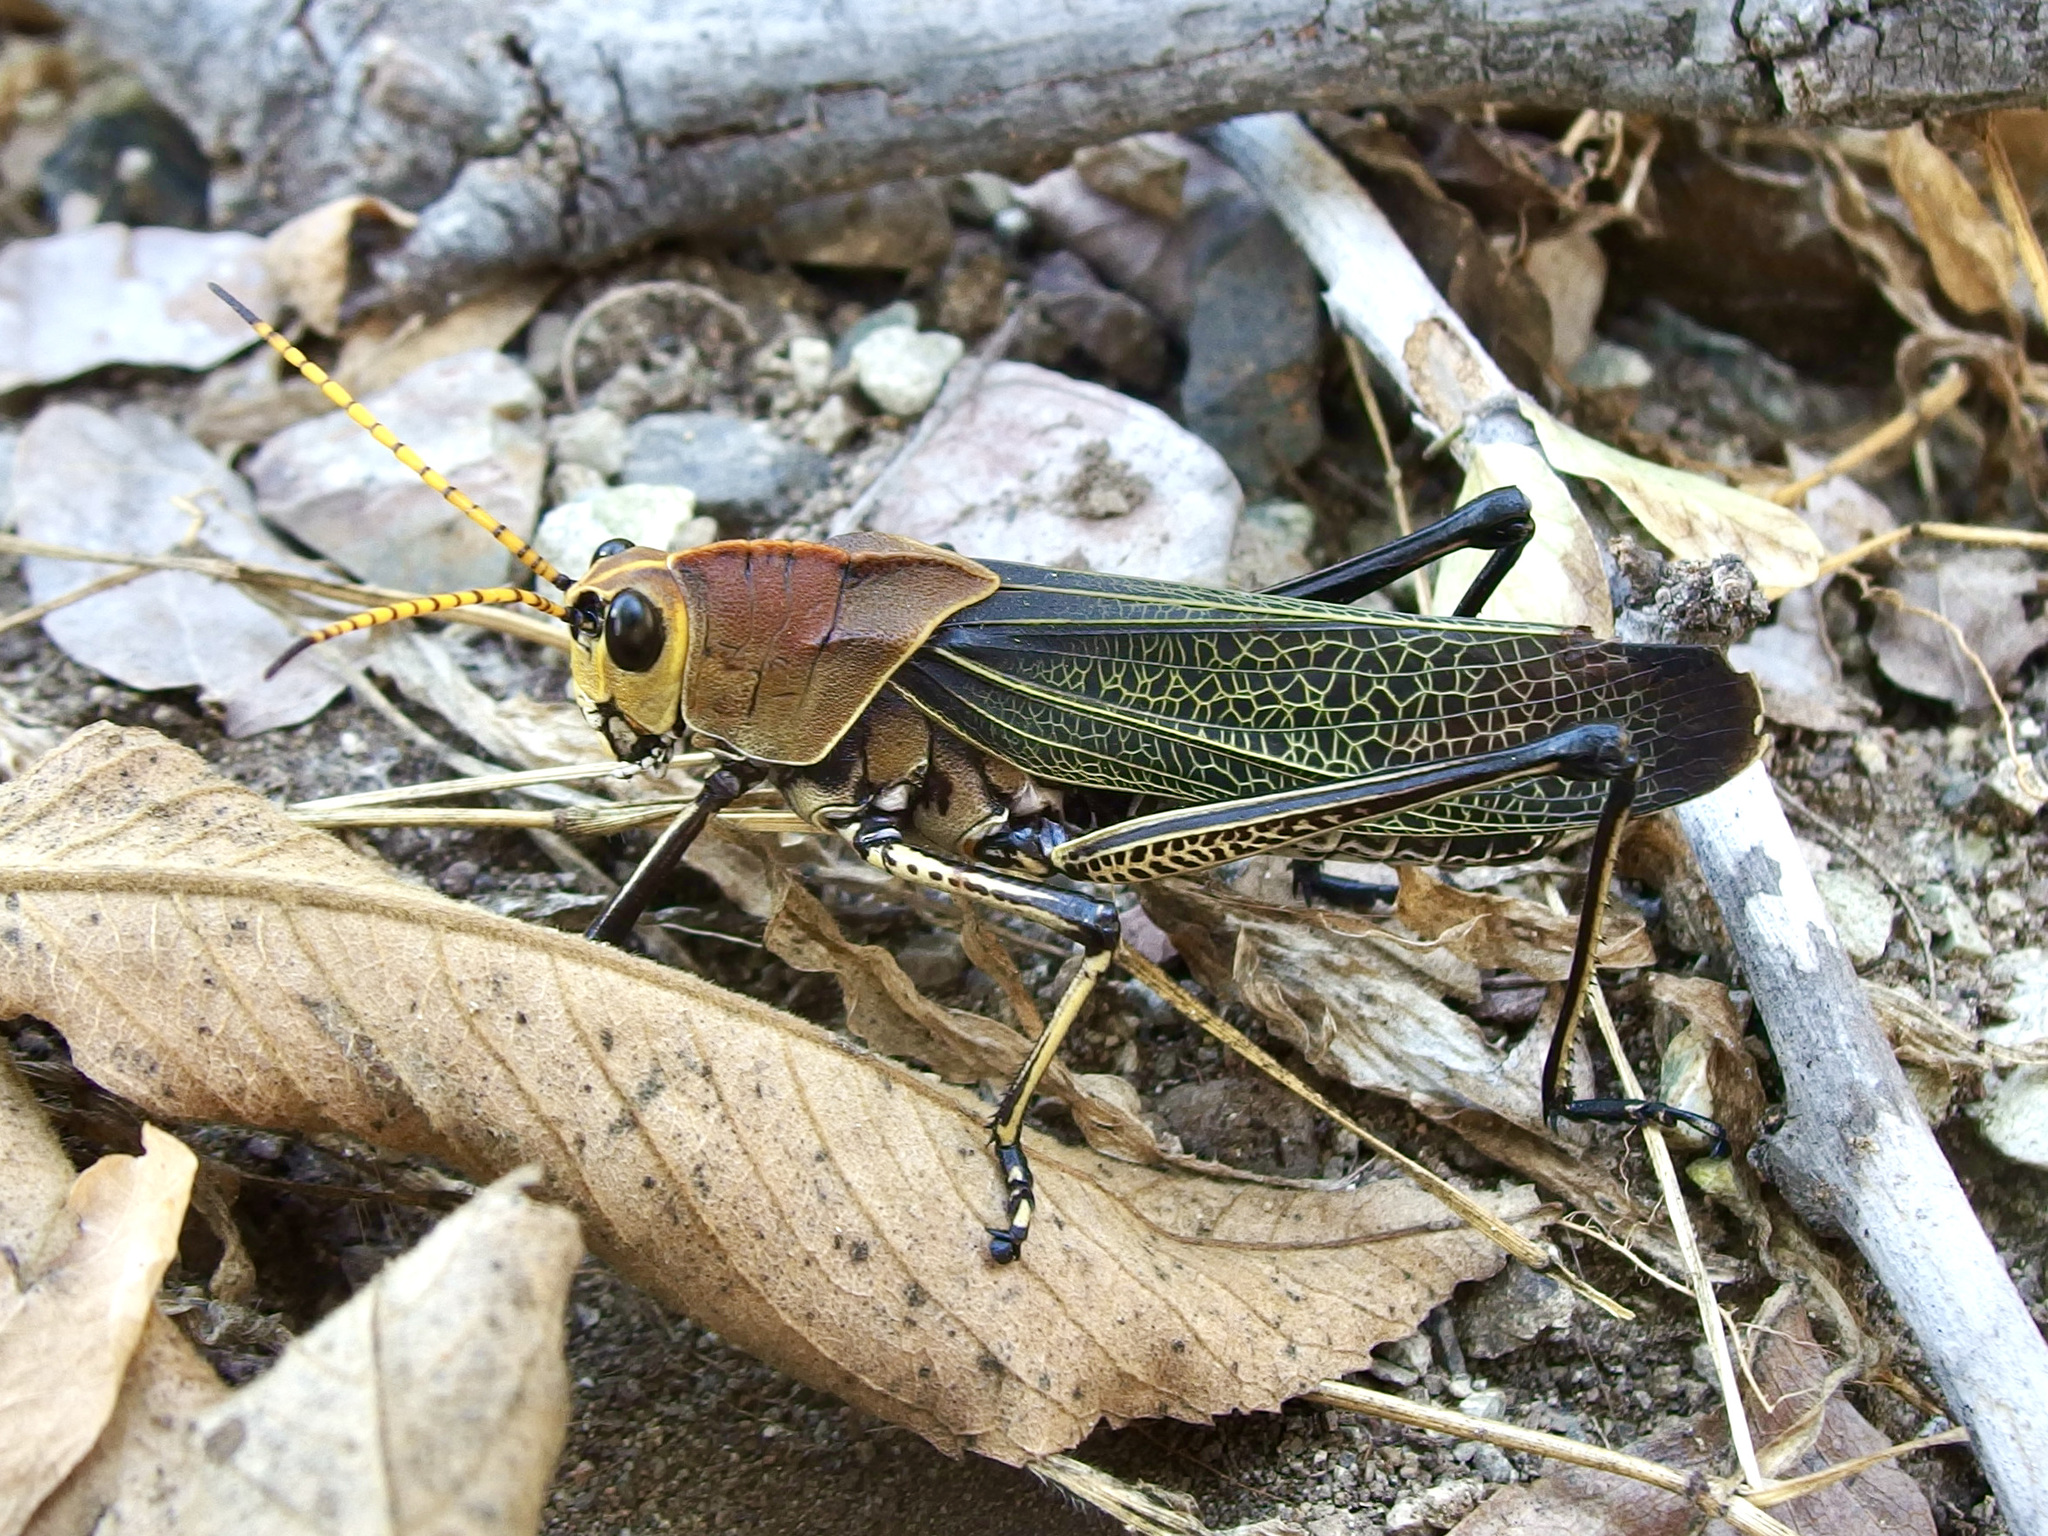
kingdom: Animalia
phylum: Arthropoda
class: Insecta
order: Orthoptera
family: Romaleidae
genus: Romalea
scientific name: Romalea
